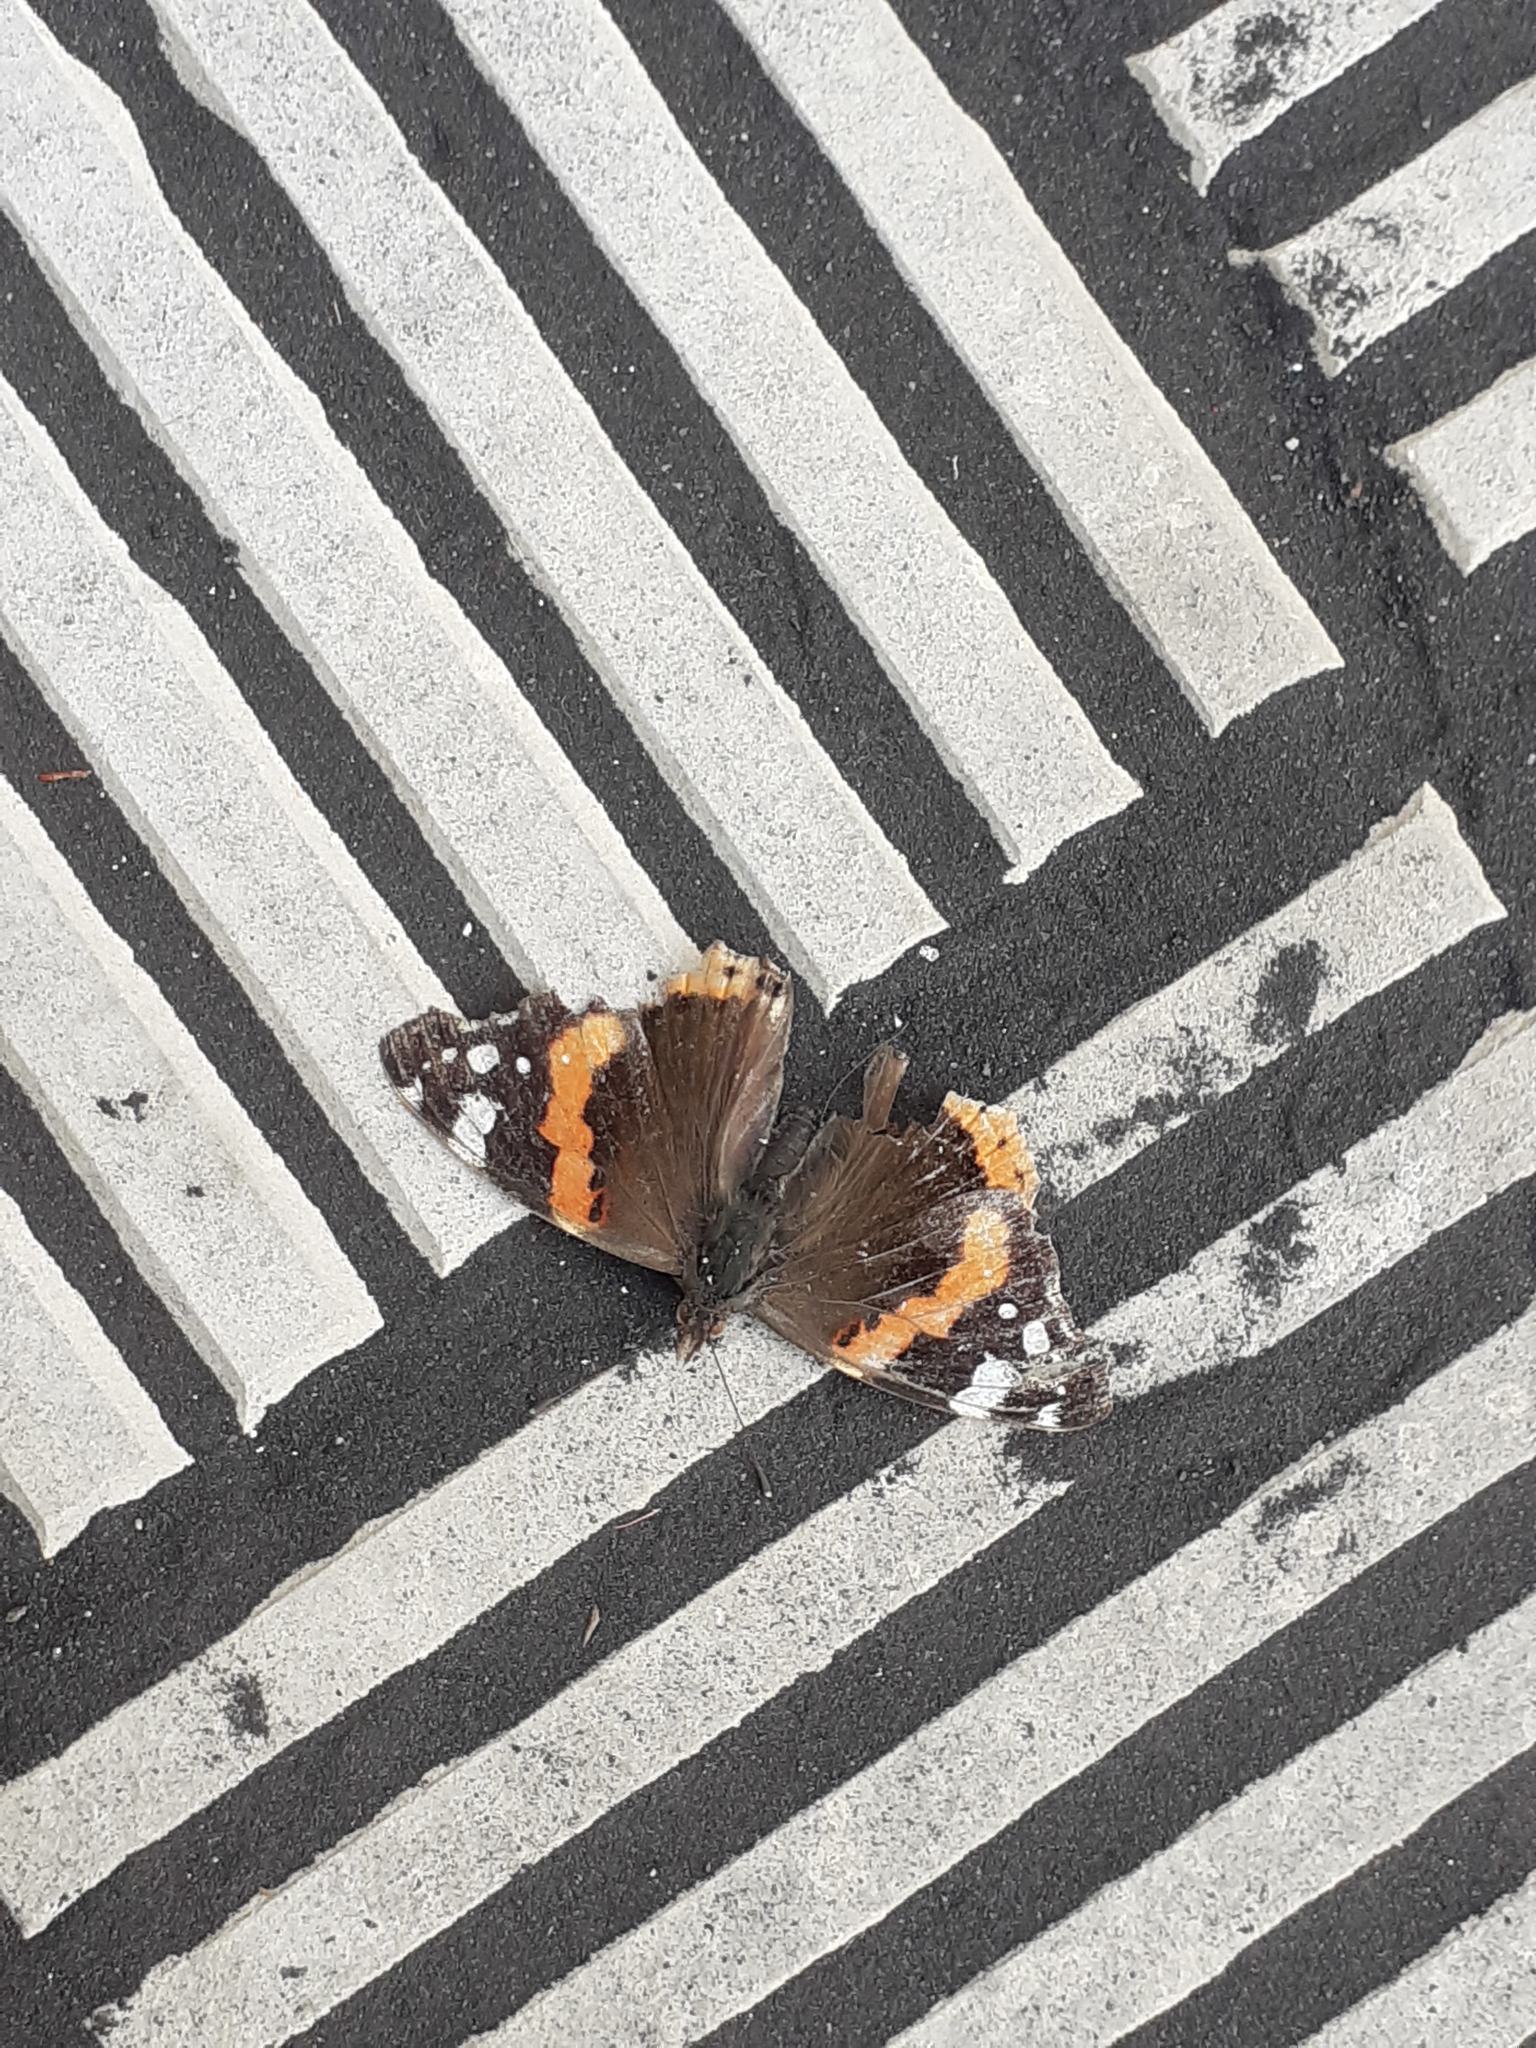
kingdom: Animalia
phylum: Arthropoda
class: Insecta
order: Lepidoptera
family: Nymphalidae
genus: Vanessa
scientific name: Vanessa atalanta
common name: Red admiral
